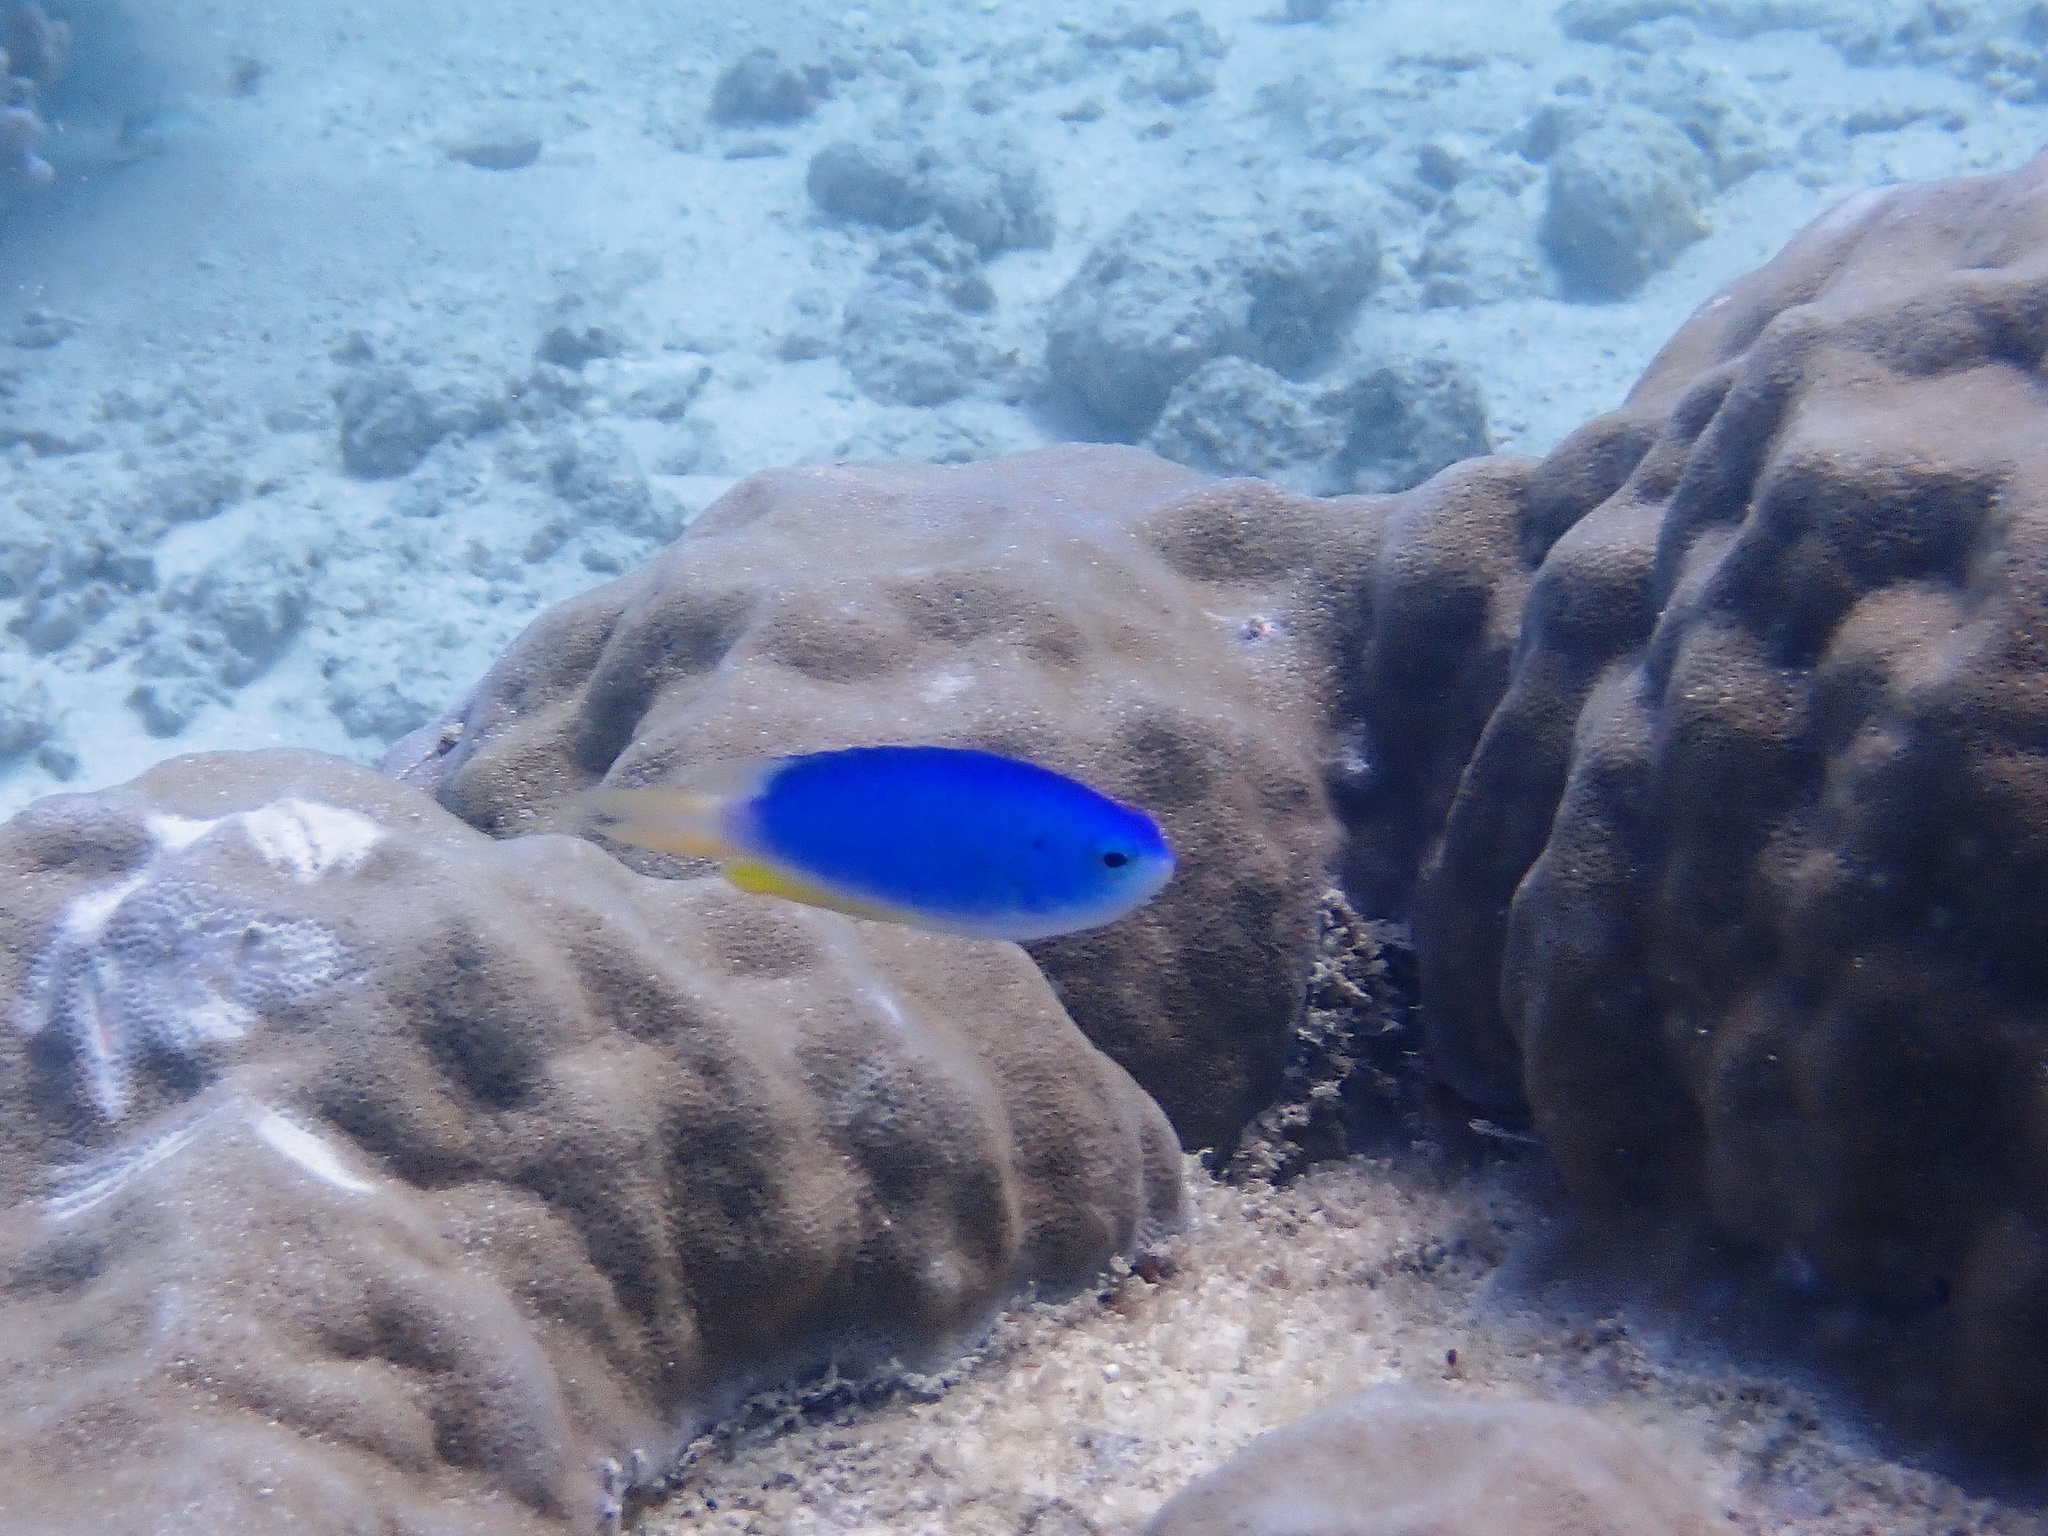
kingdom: Animalia
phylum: Chordata
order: Perciformes
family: Pomacentridae
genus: Pomacentrus
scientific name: Pomacentrus coelestis
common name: Neon damsel
